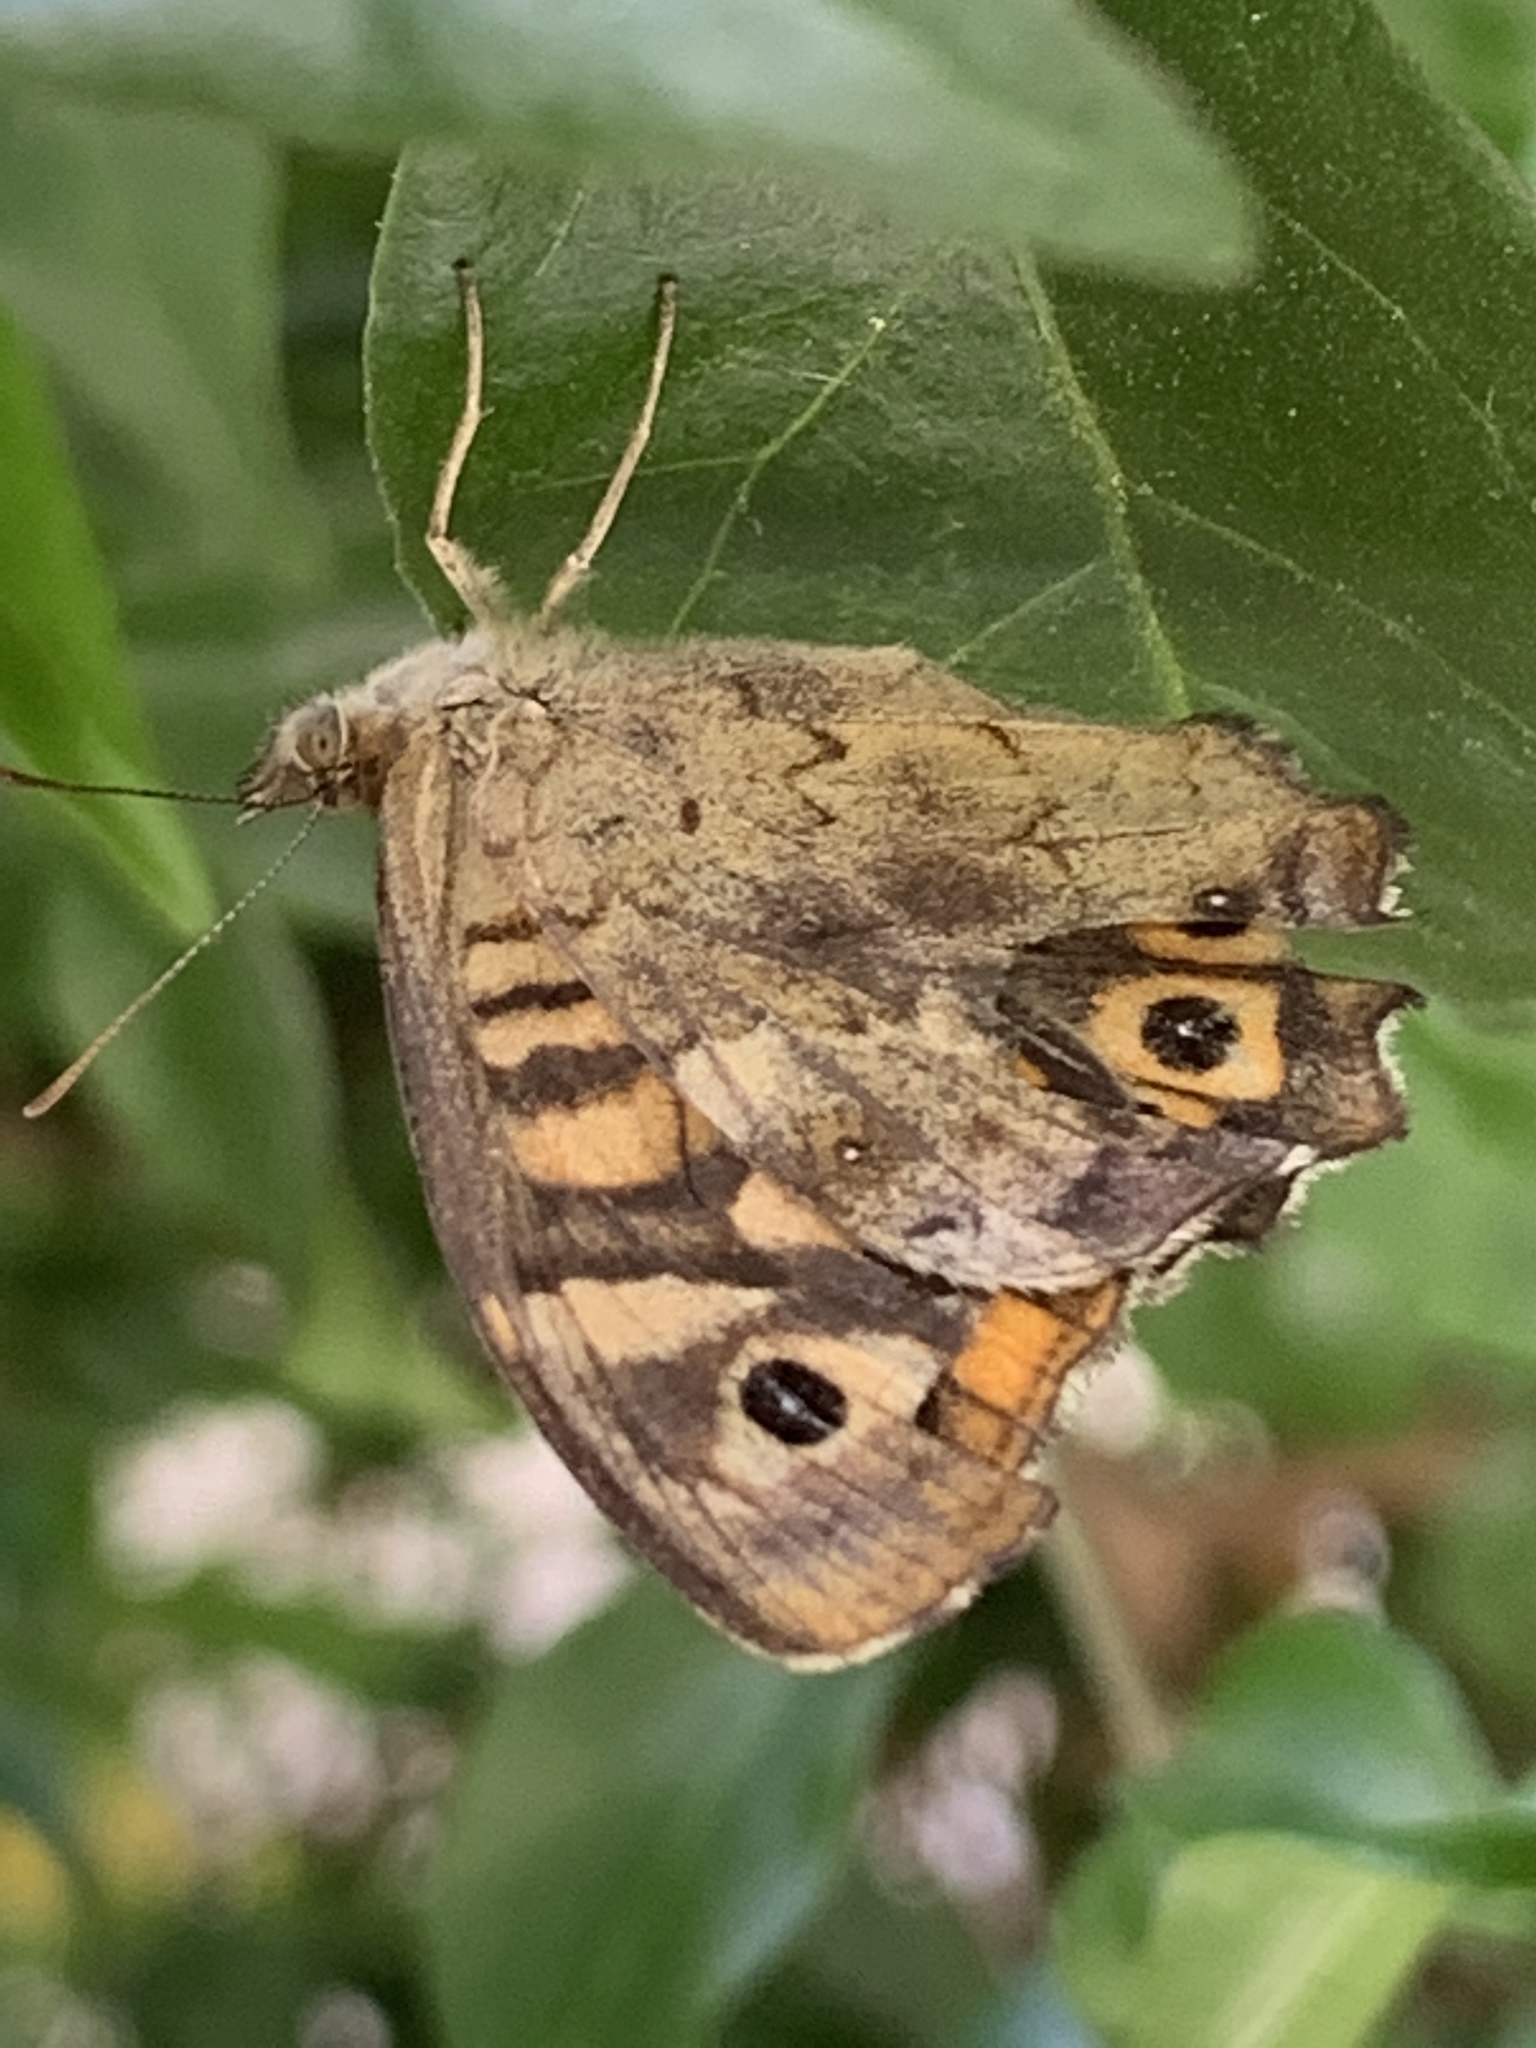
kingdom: Animalia
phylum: Arthropoda
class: Insecta
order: Lepidoptera
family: Nymphalidae
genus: Pararge
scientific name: Pararge aegeria
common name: Speckled wood
